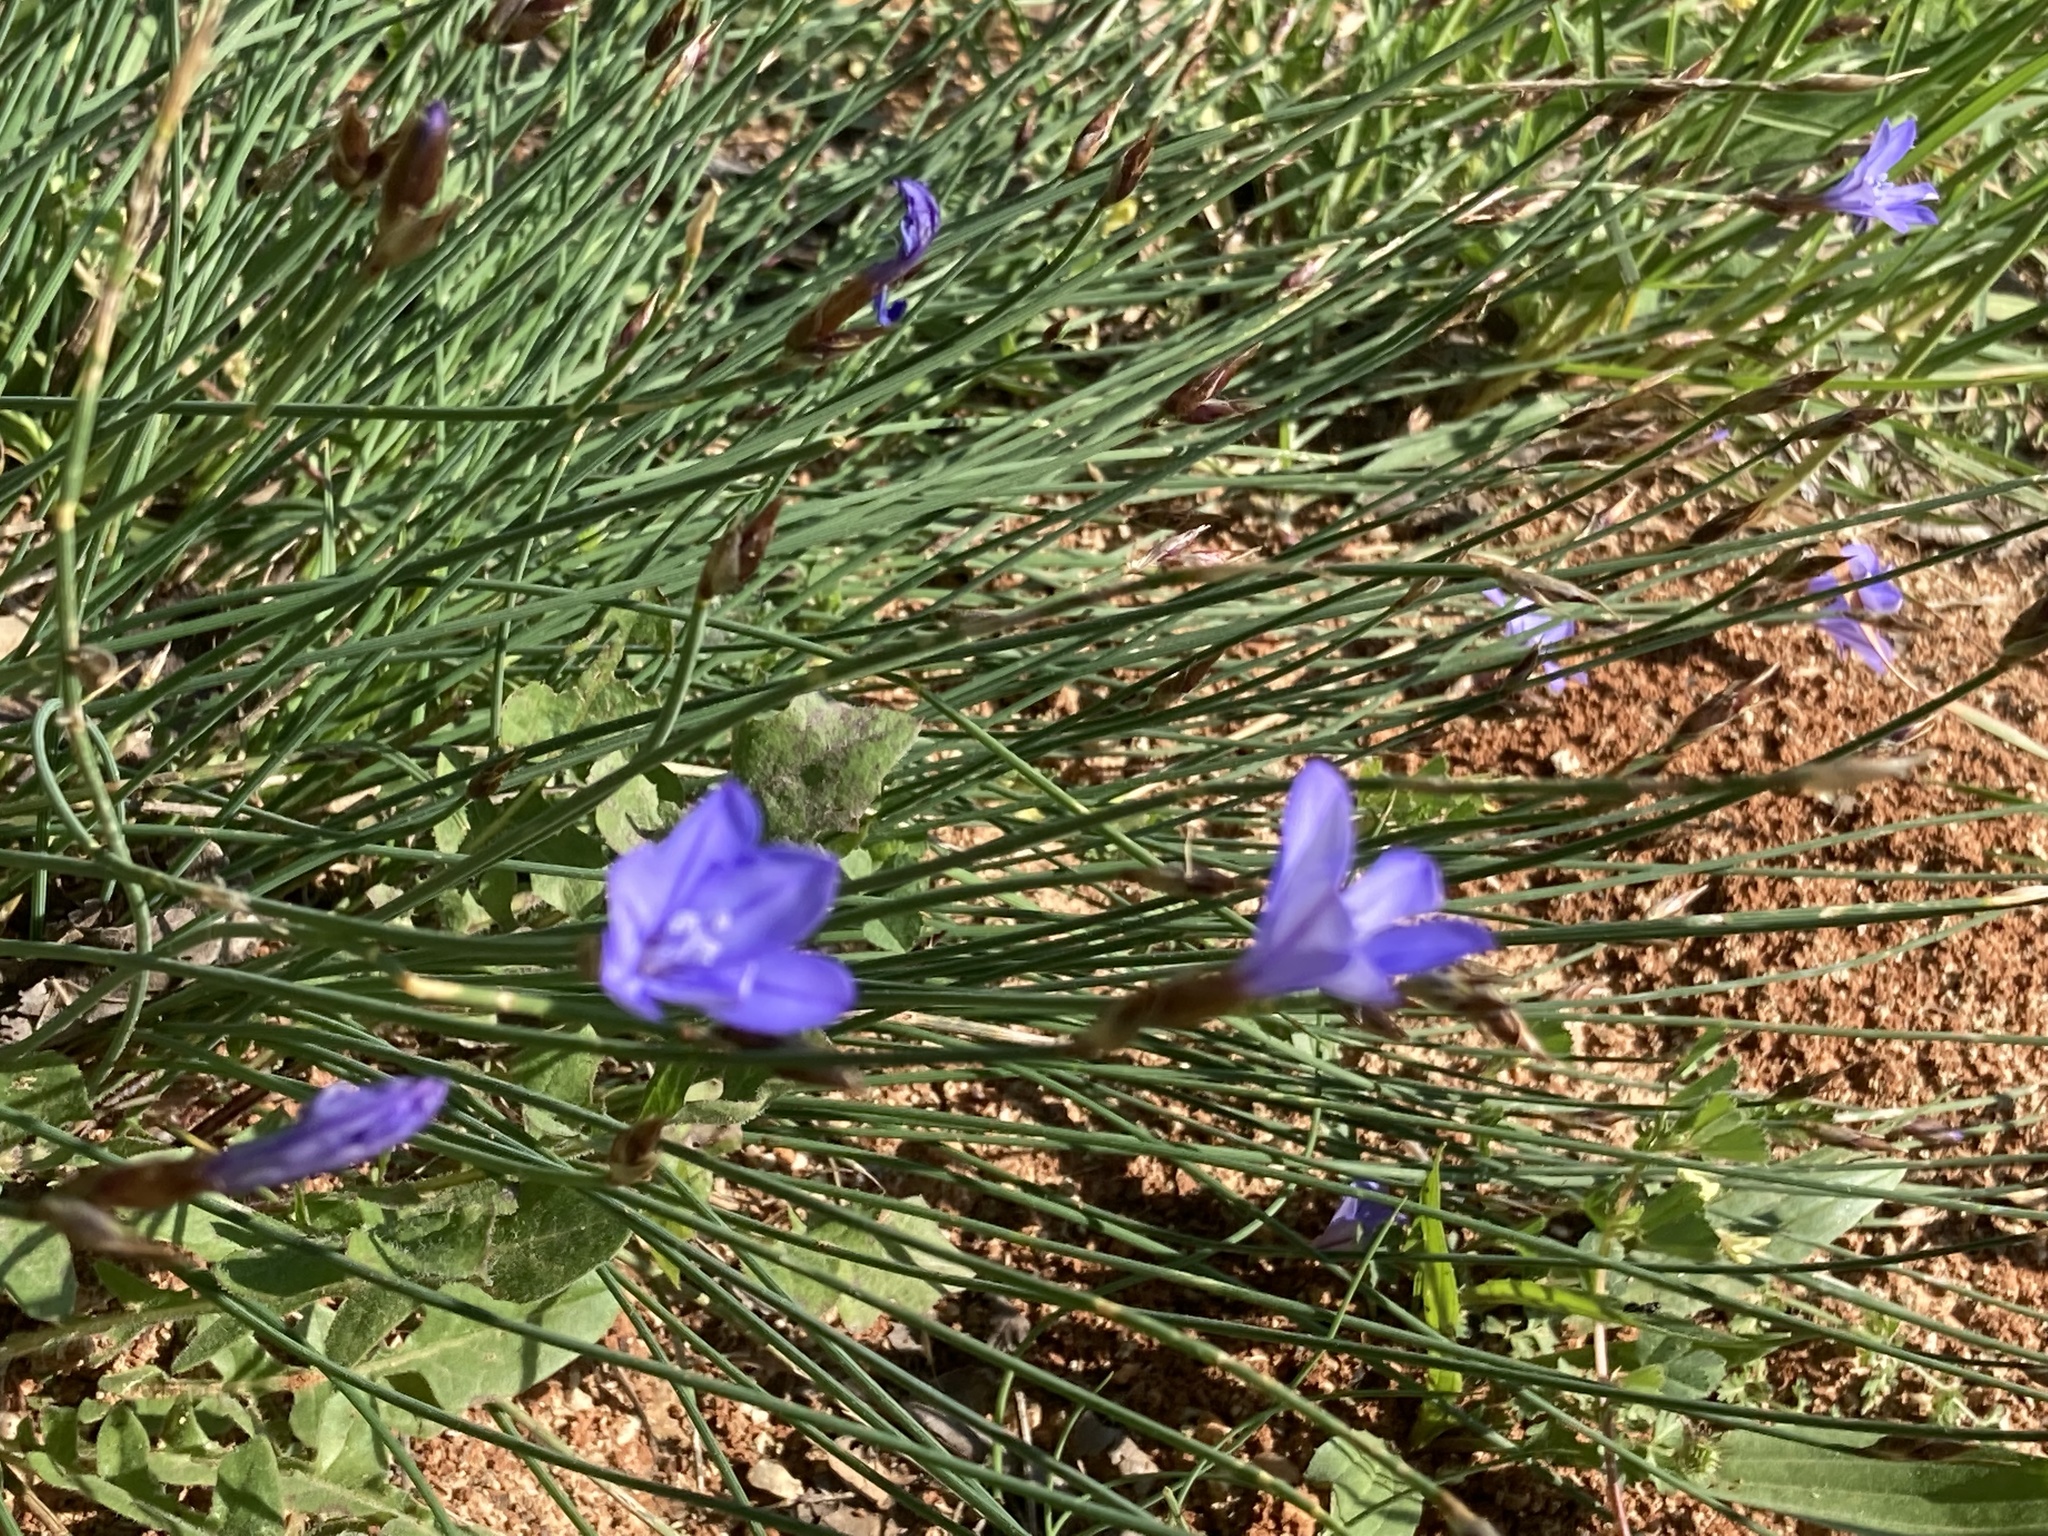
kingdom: Plantae
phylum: Tracheophyta
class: Liliopsida
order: Asparagales
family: Asparagaceae
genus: Aphyllanthes
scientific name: Aphyllanthes monspeliensis
